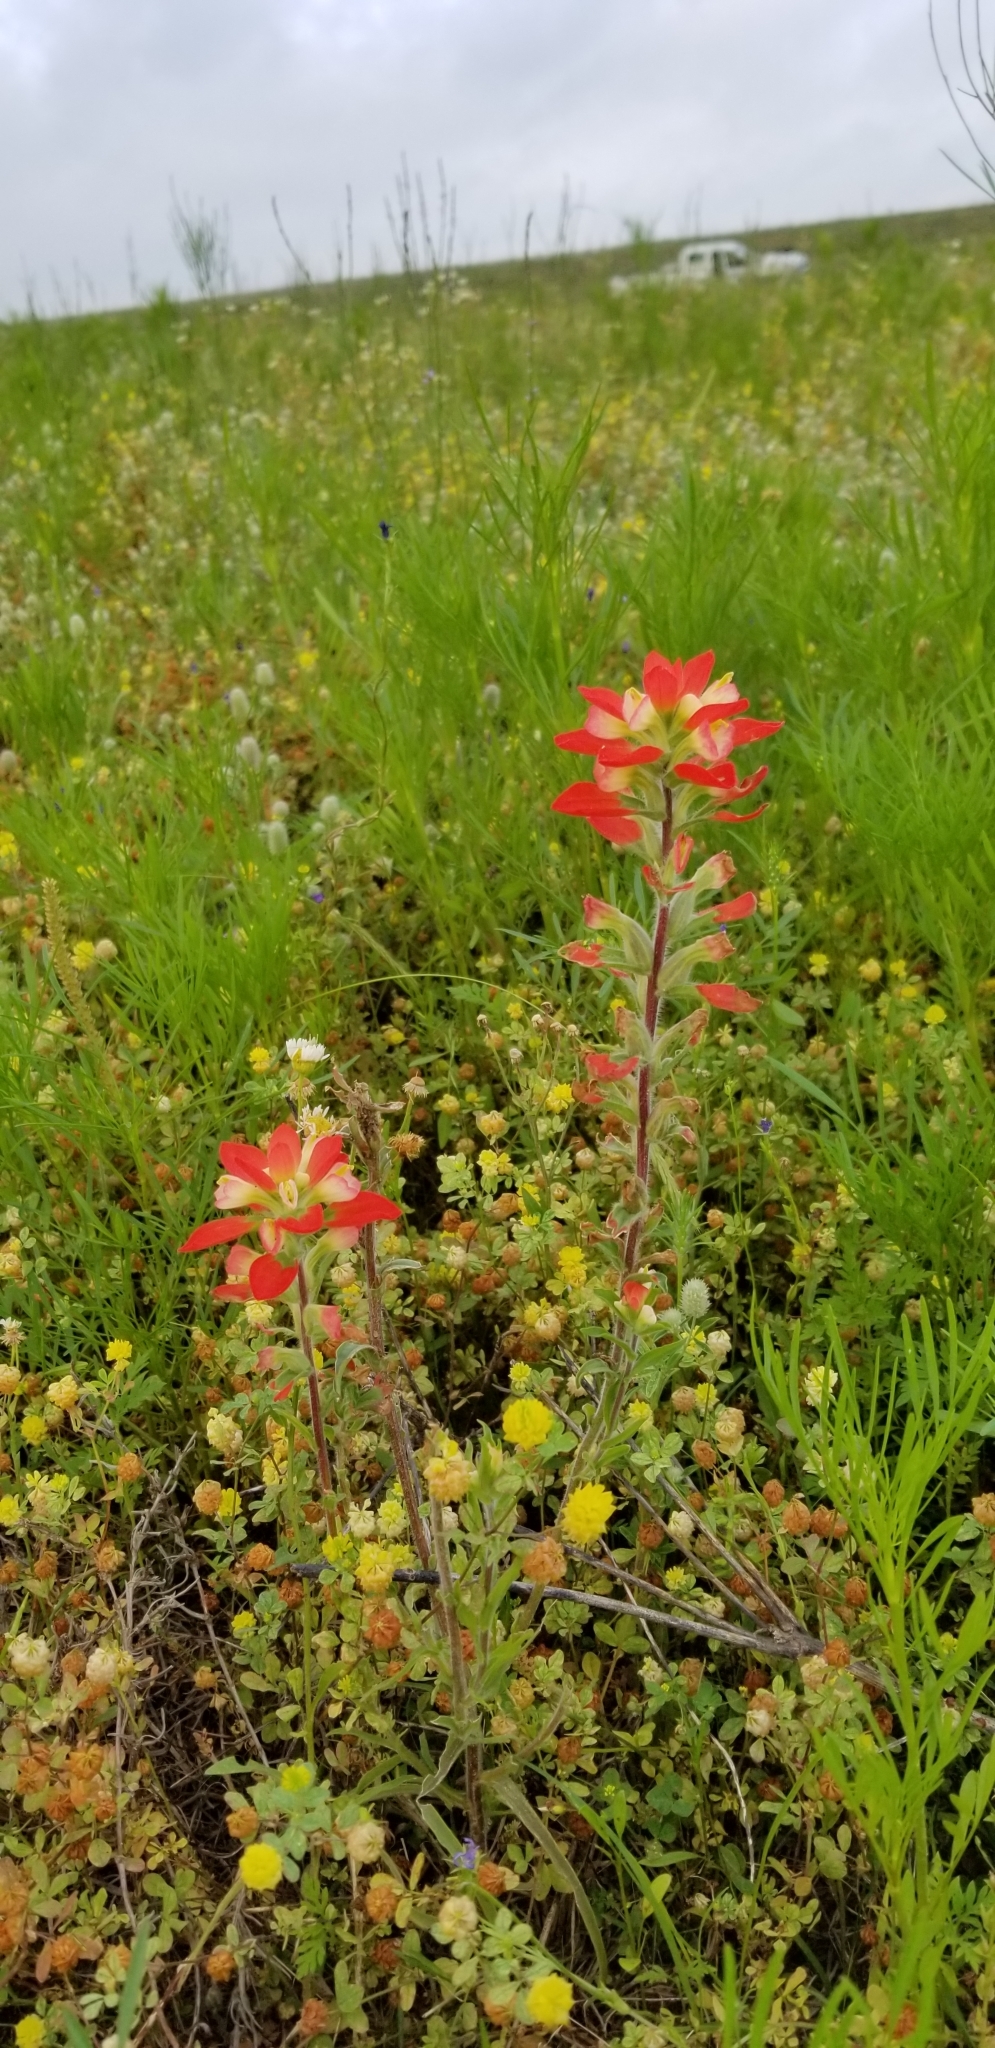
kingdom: Plantae
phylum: Tracheophyta
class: Magnoliopsida
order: Lamiales
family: Orobanchaceae
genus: Castilleja
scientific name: Castilleja indivisa
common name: Texas paintbrush
